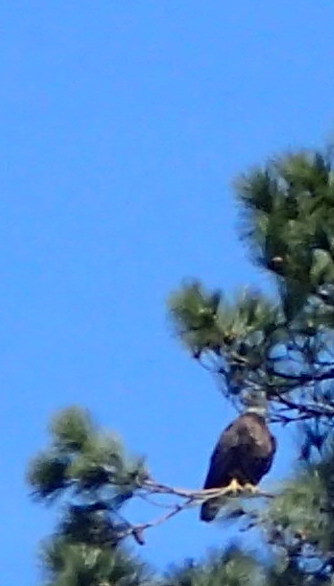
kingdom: Animalia
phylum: Chordata
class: Aves
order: Accipitriformes
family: Accipitridae
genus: Haliaeetus
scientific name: Haliaeetus leucocephalus
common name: Bald eagle
